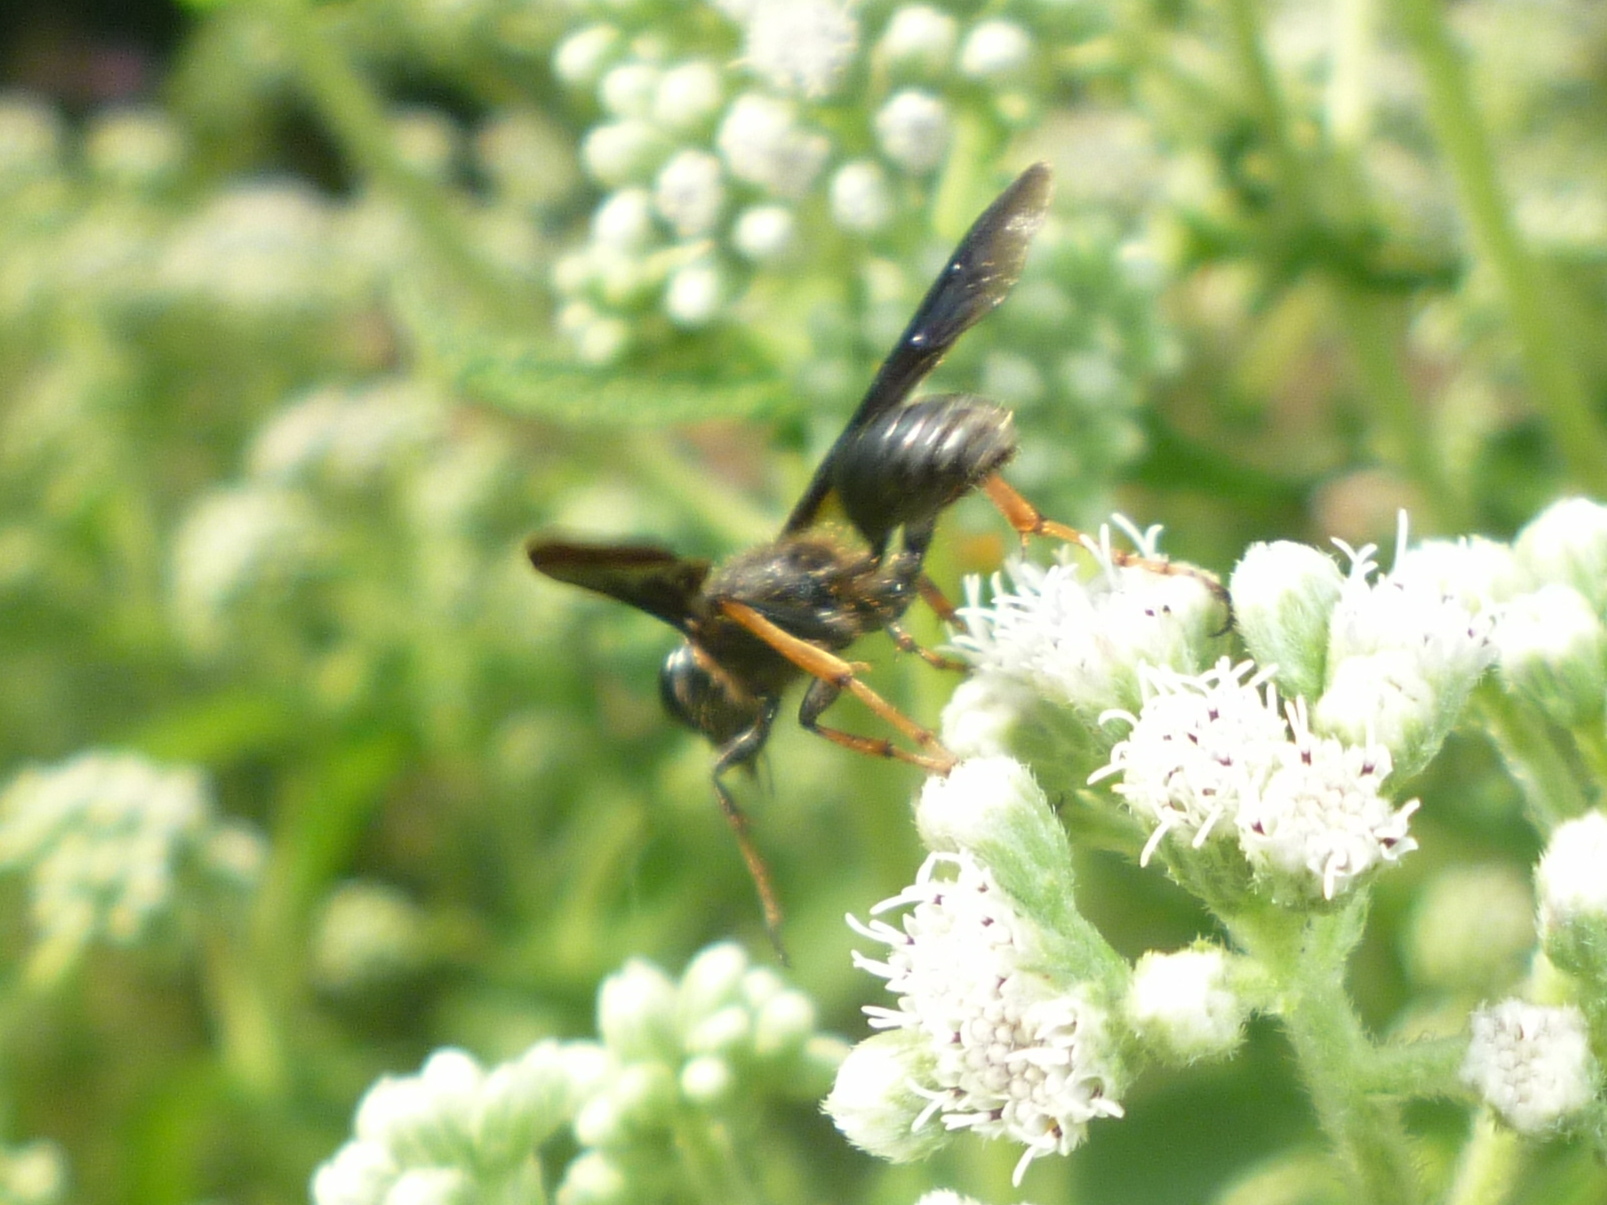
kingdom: Animalia
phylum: Arthropoda
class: Insecta
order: Hymenoptera
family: Sphecidae
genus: Isodontia
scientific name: Isodontia auripes
